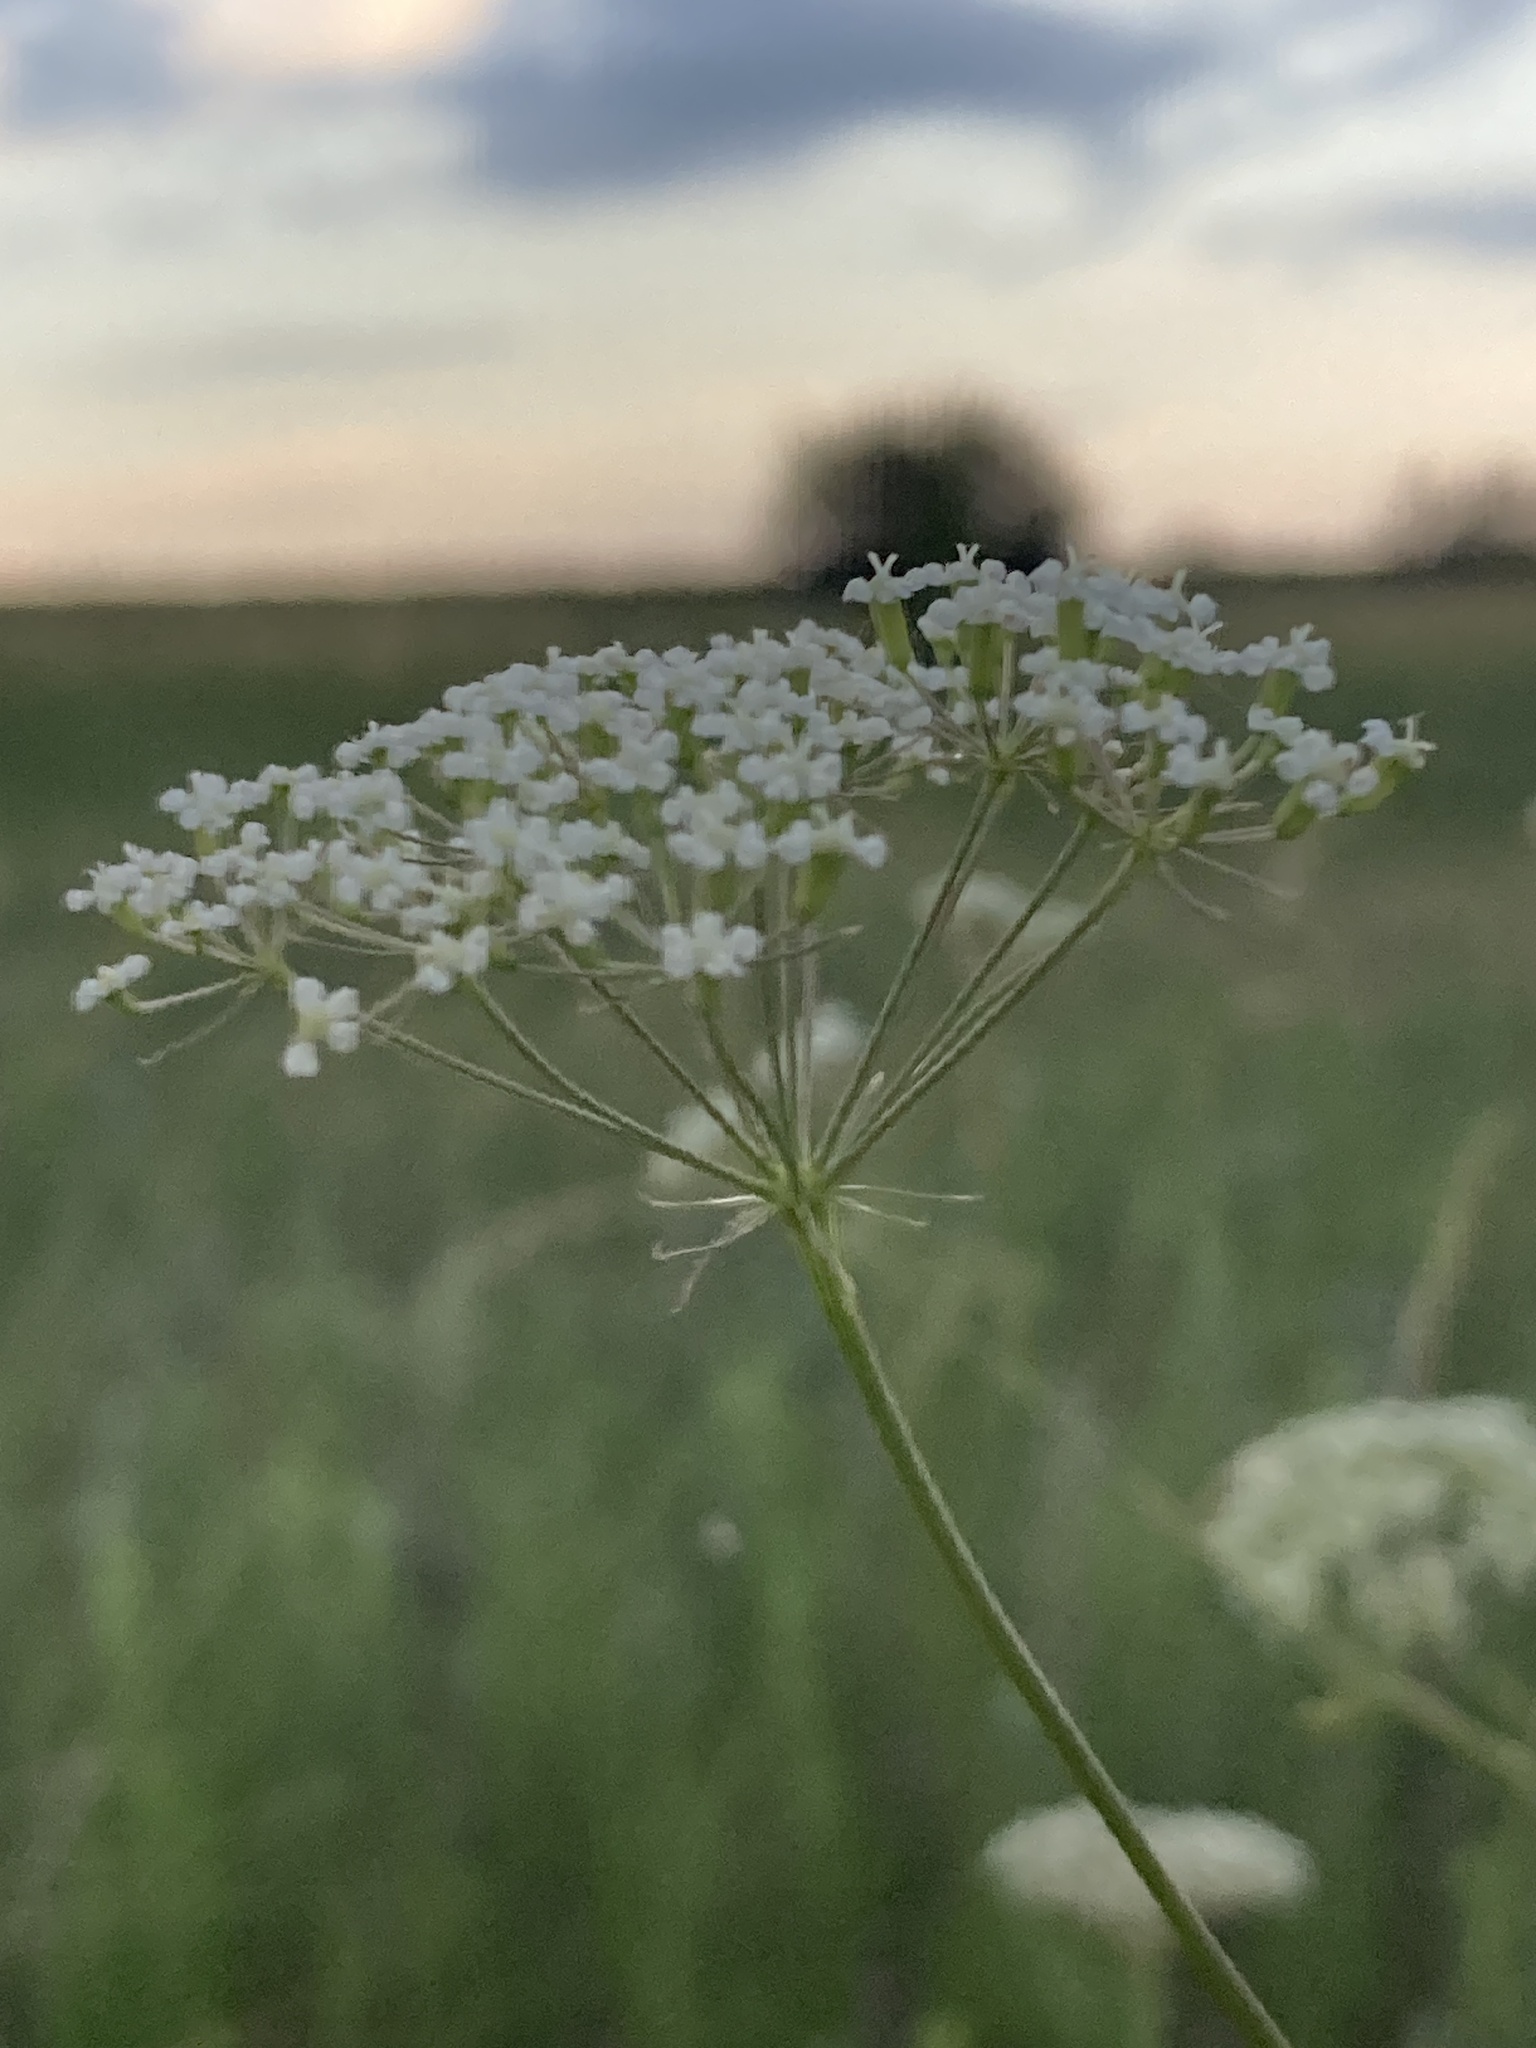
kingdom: Plantae
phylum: Tracheophyta
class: Magnoliopsida
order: Apiales
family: Apiaceae
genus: Falcaria
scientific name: Falcaria vulgaris
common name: Longleaf
